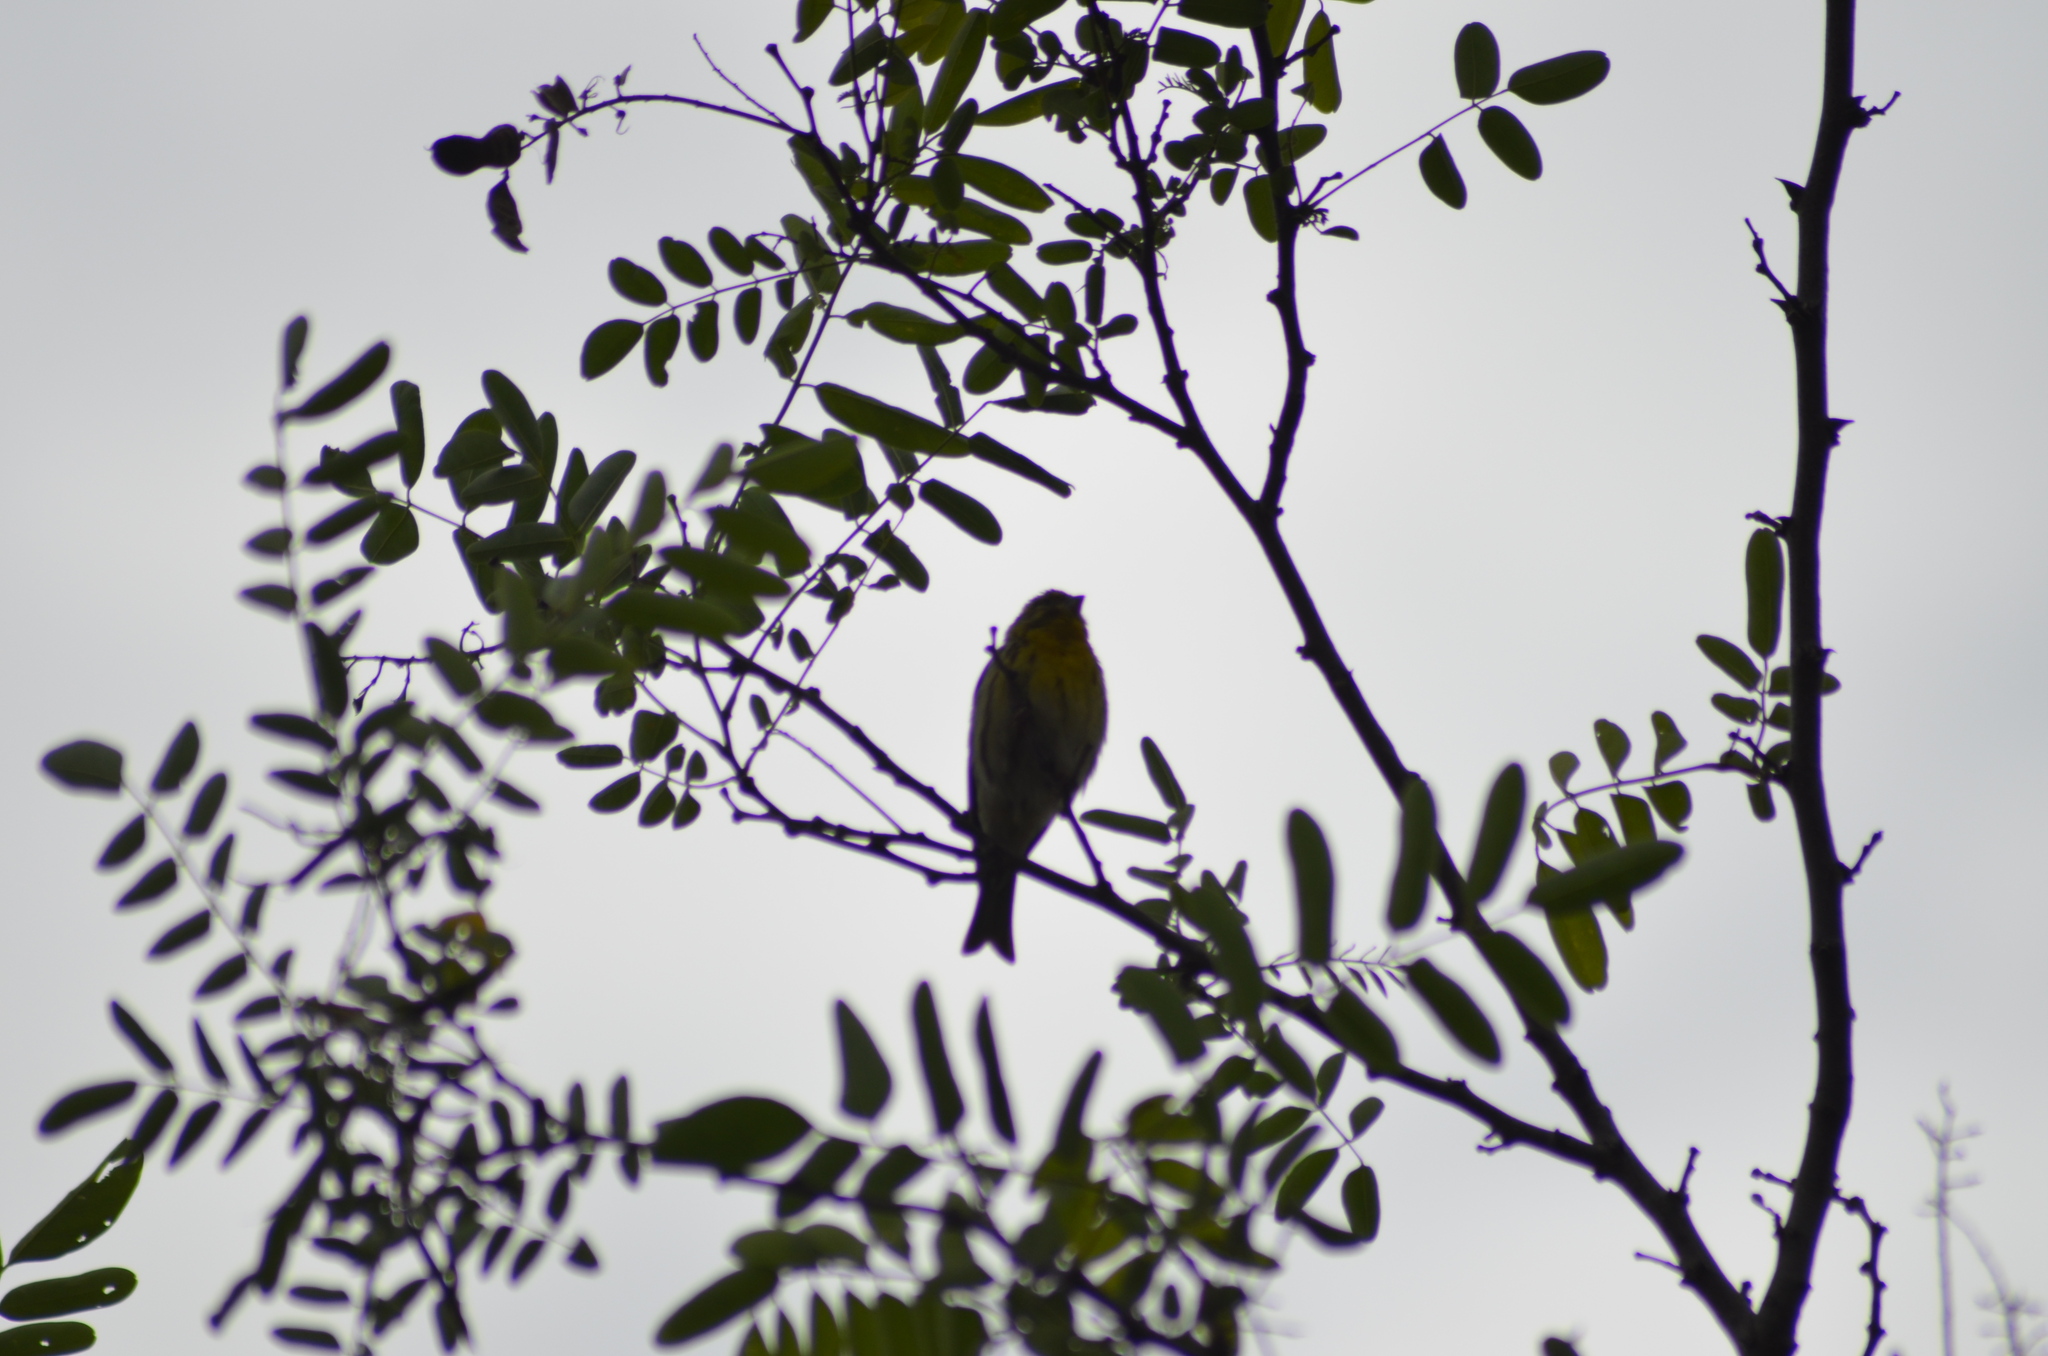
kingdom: Animalia
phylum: Chordata
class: Aves
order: Passeriformes
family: Fringillidae
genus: Serinus
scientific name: Serinus serinus
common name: European serin
